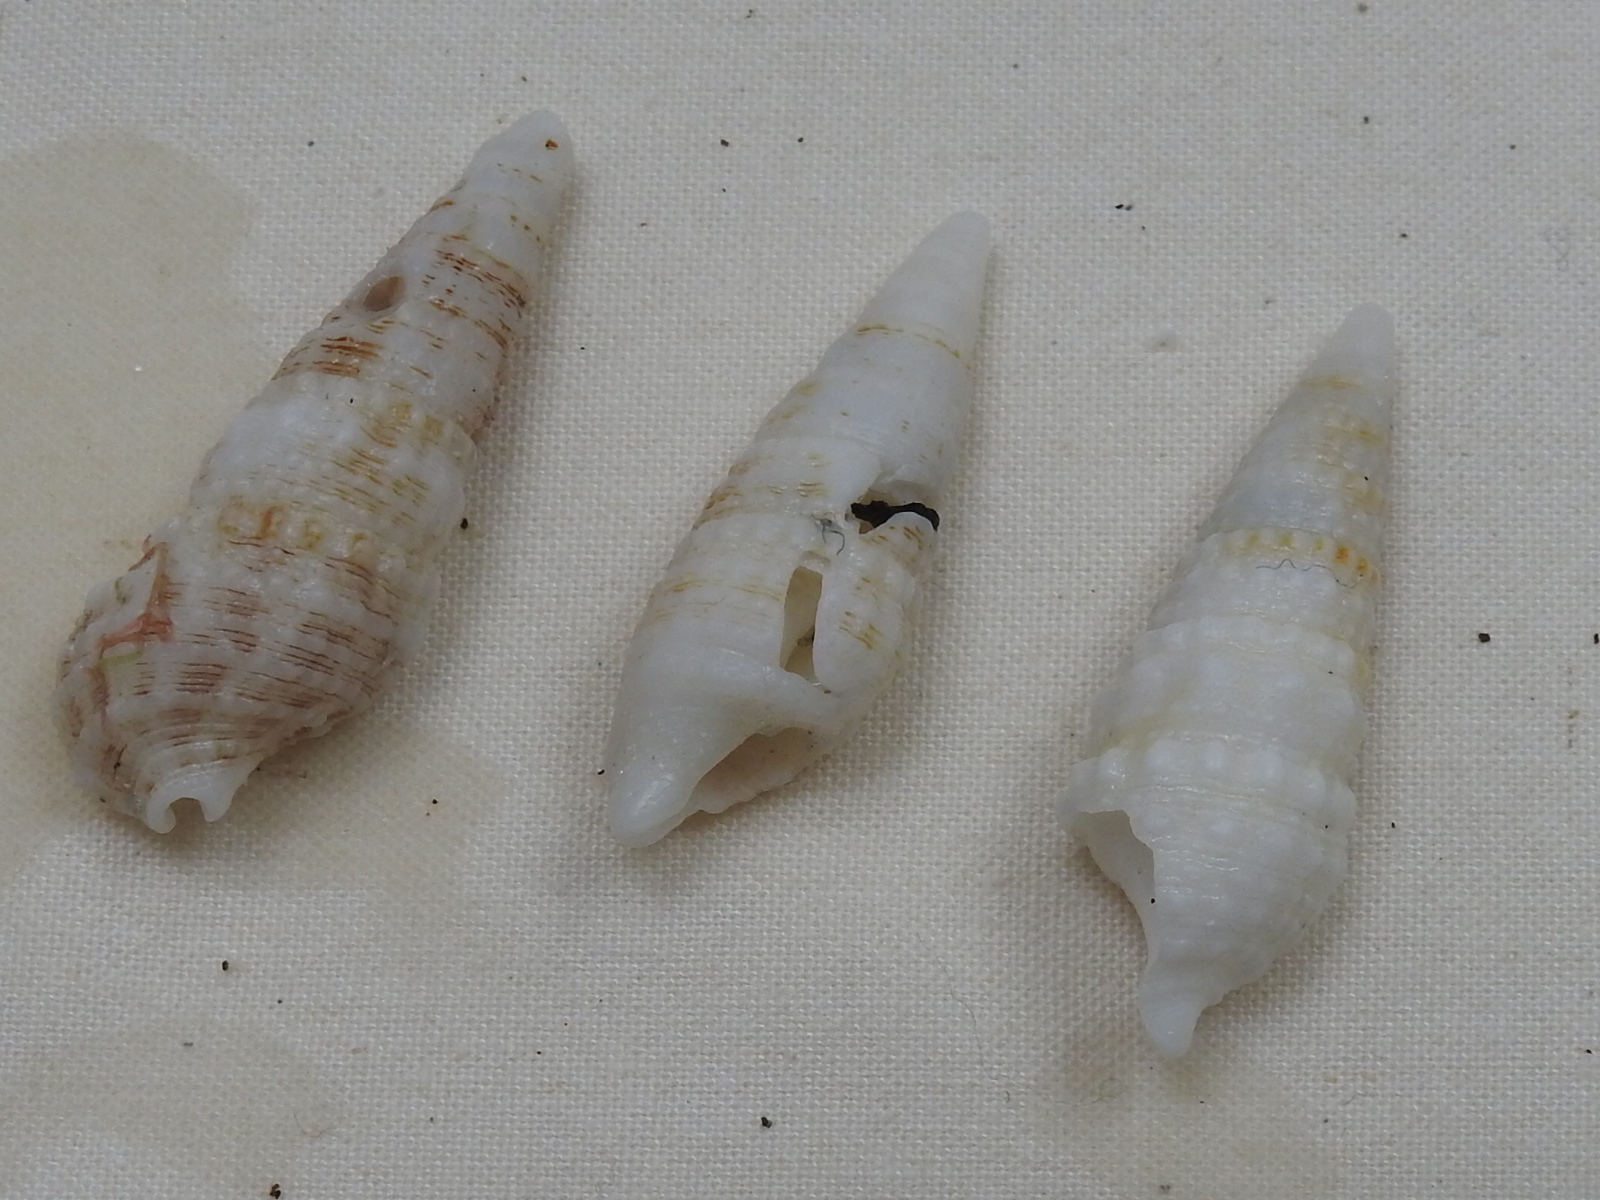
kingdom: Animalia
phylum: Mollusca
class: Gastropoda
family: Cerithiidae
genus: Cerithium
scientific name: Cerithium atratum
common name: Dark cerith
